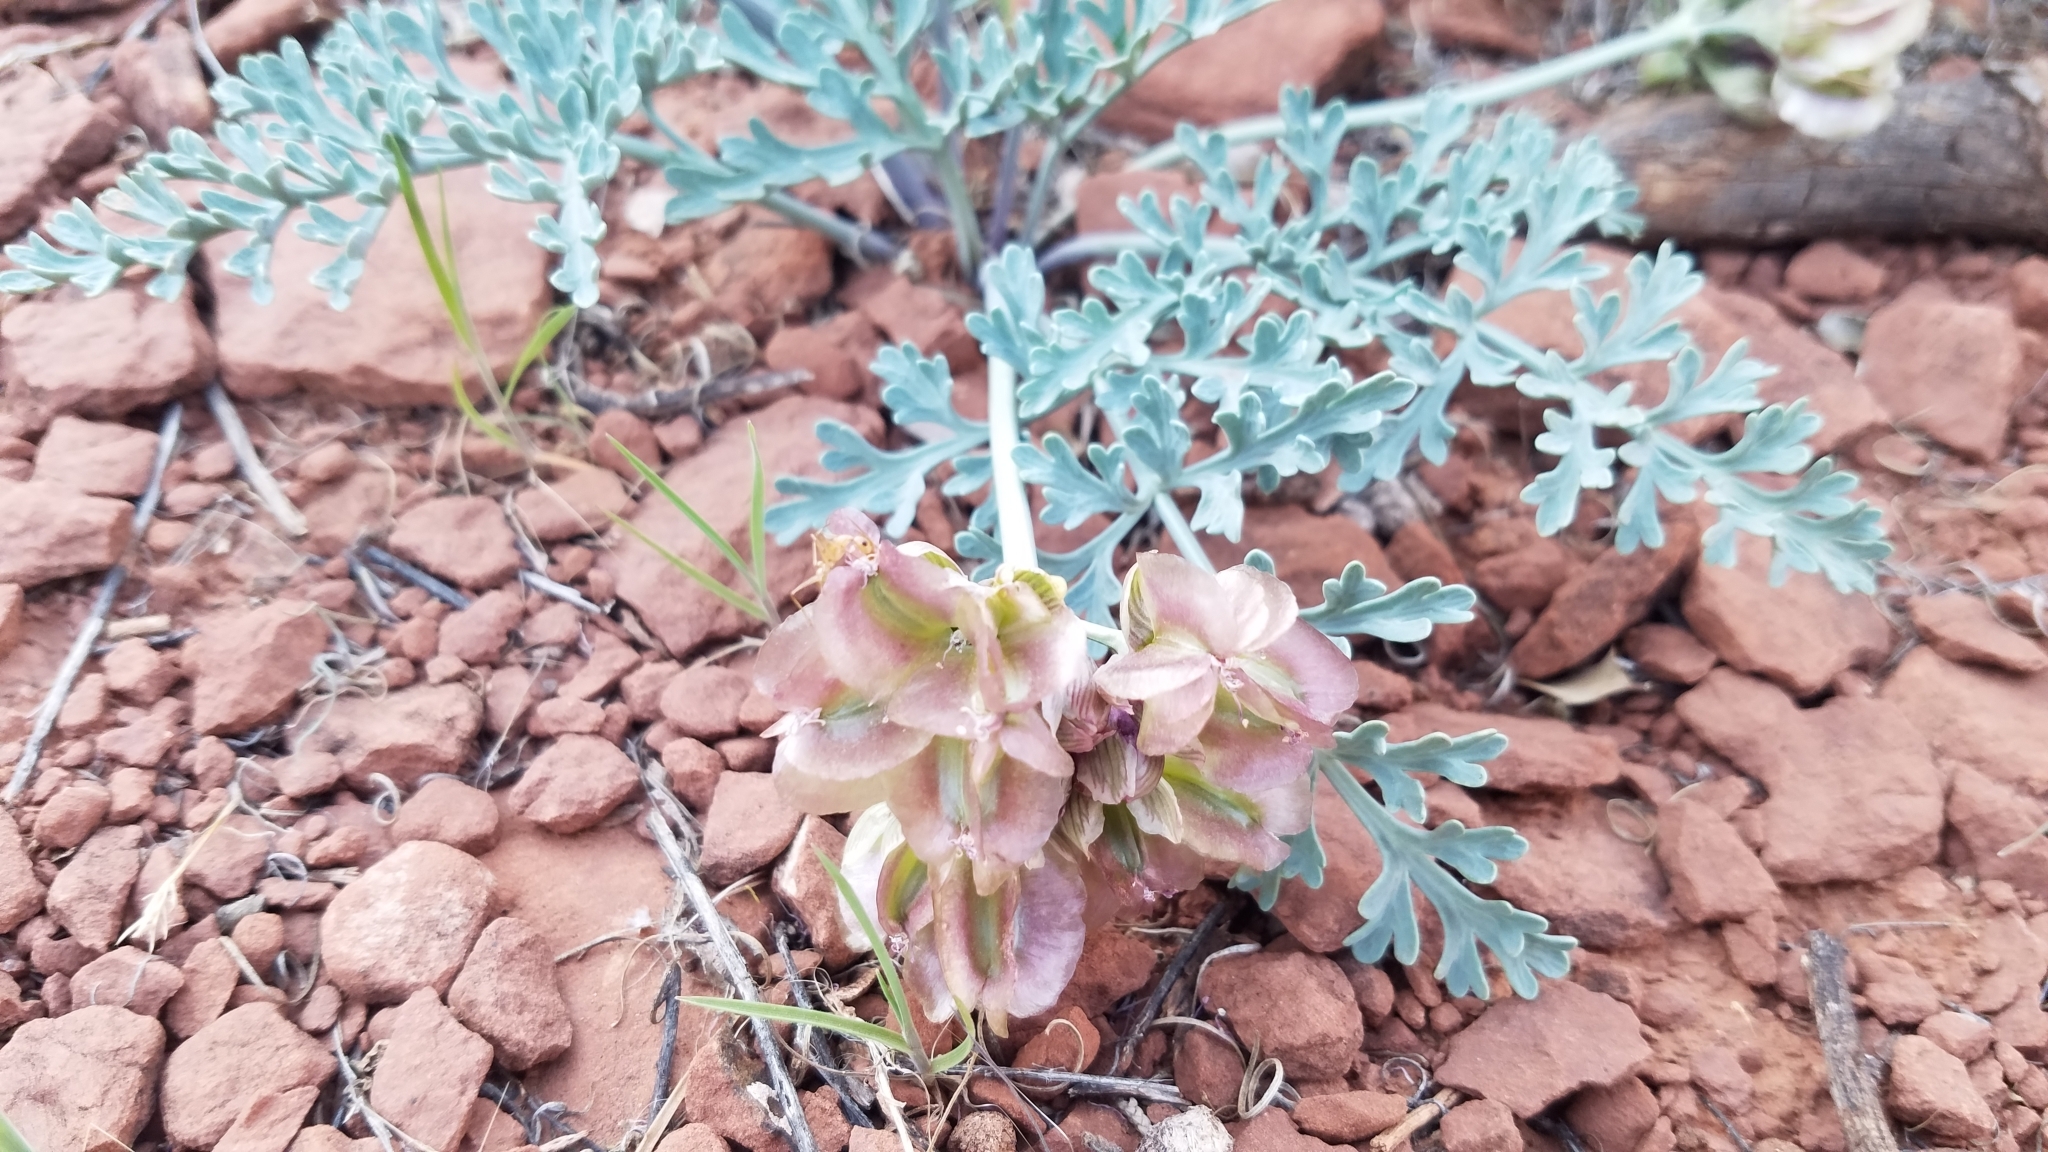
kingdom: Plantae
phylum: Tracheophyta
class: Magnoliopsida
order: Apiales
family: Apiaceae
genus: Vesper
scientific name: Vesper multinervatus
